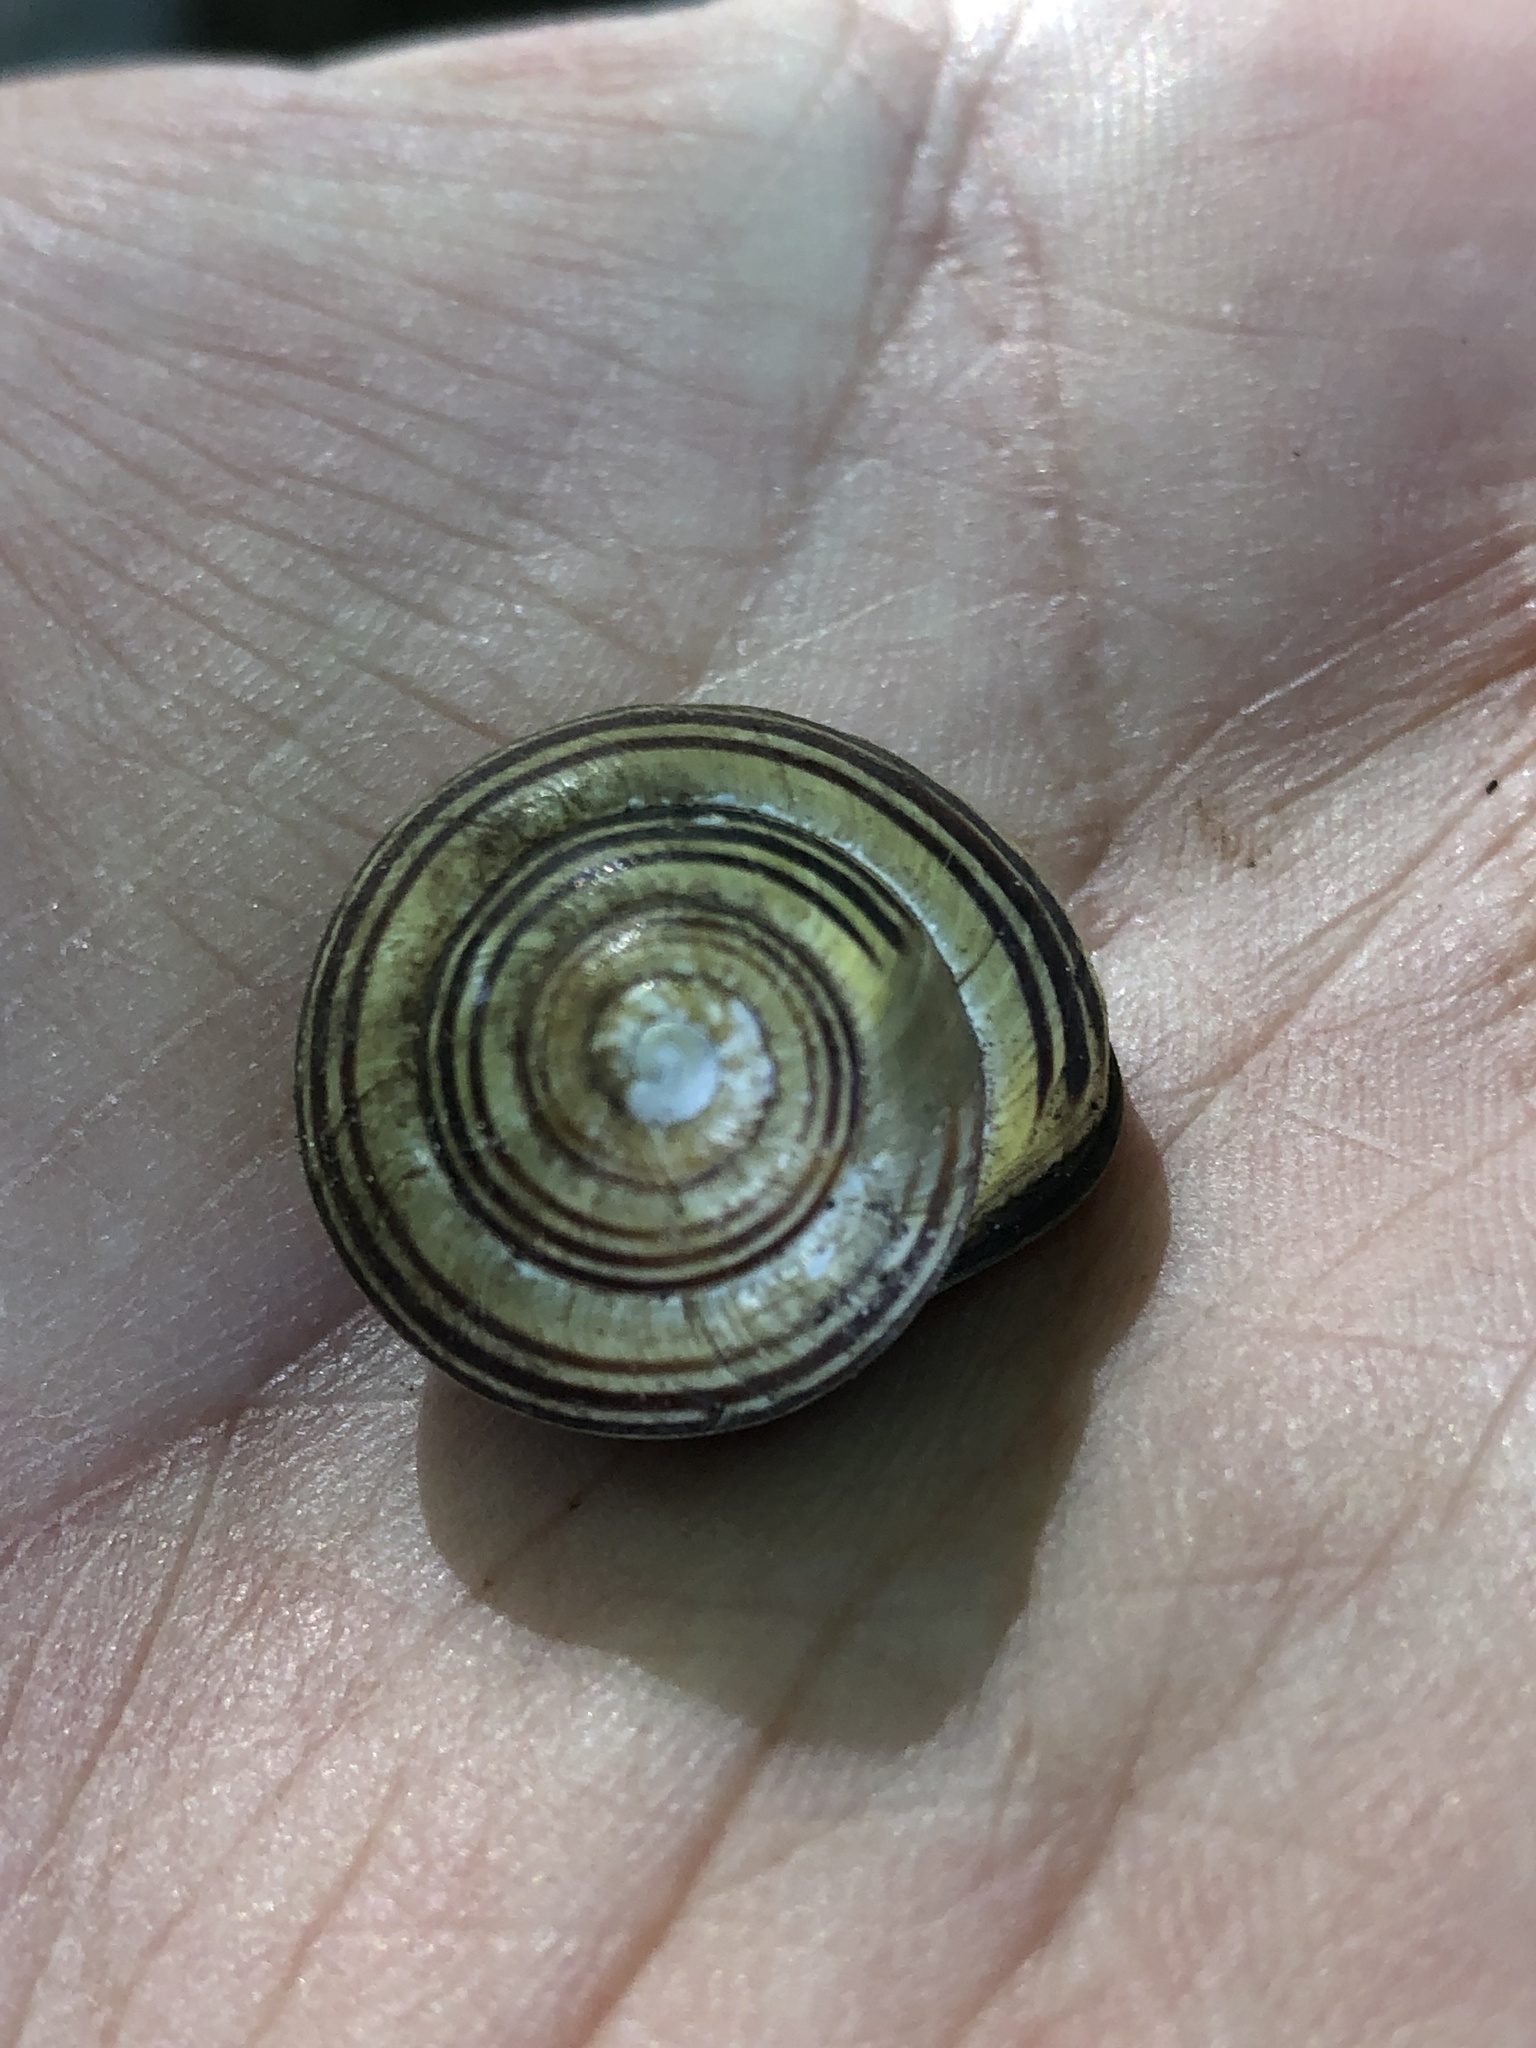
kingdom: Animalia
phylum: Mollusca
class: Gastropoda
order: Stylommatophora
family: Helicidae
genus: Cepaea
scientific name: Cepaea nemoralis
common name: Grovesnail
